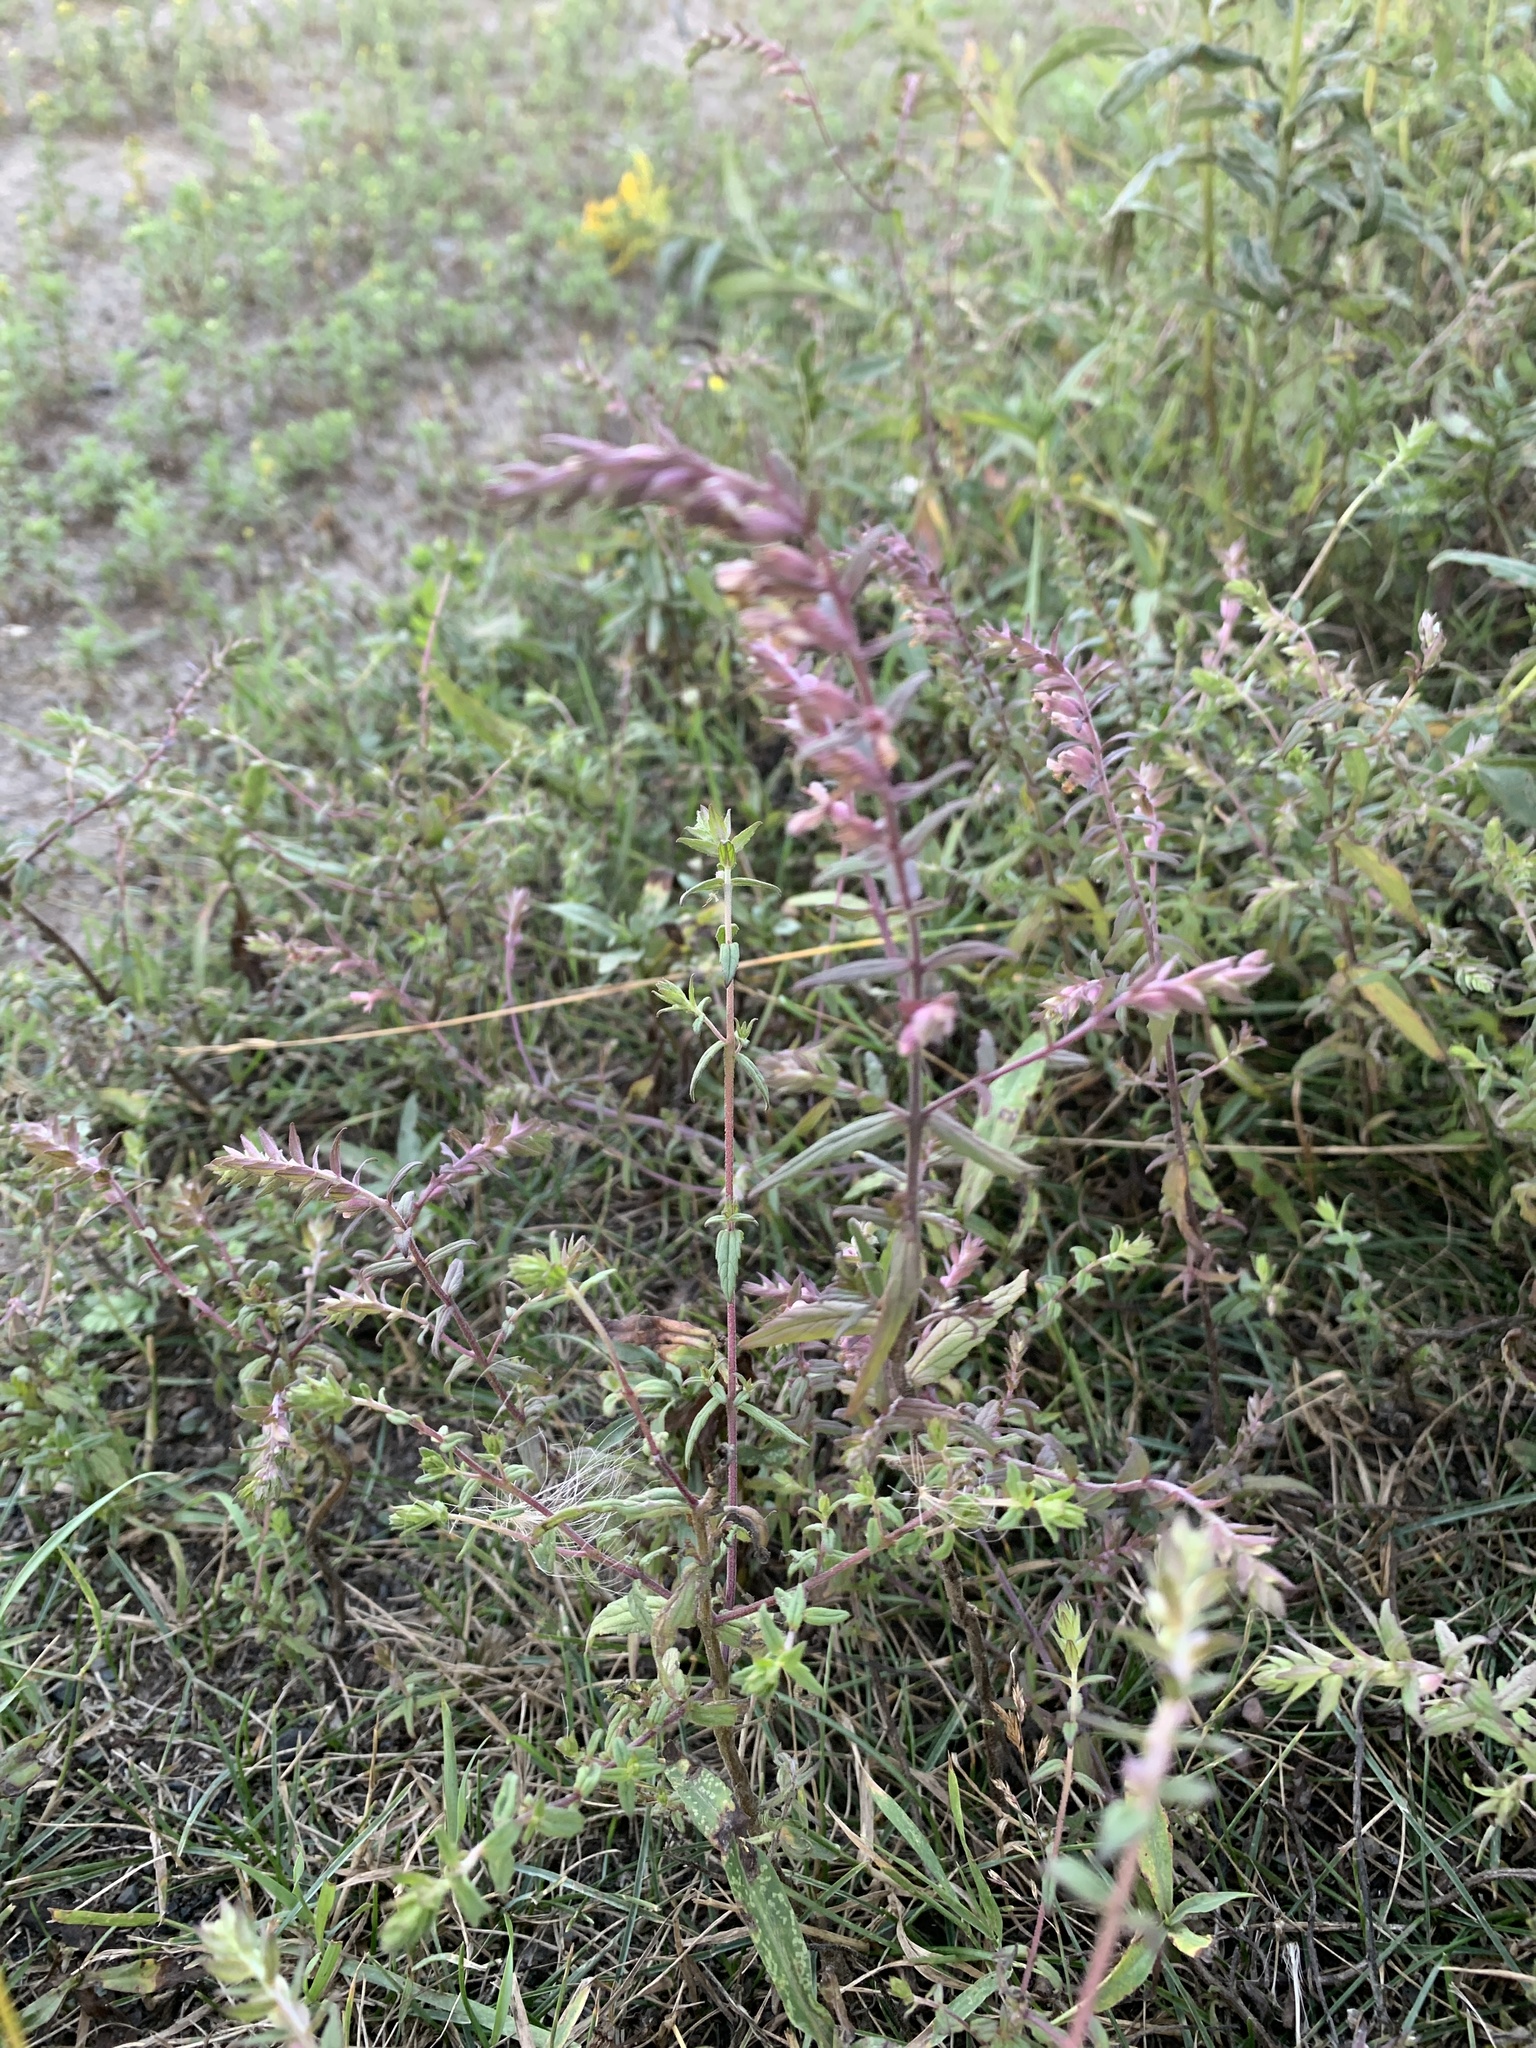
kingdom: Plantae
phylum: Tracheophyta
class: Magnoliopsida
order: Lamiales
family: Orobanchaceae
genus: Odontites
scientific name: Odontites vulgaris
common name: Broomrape
